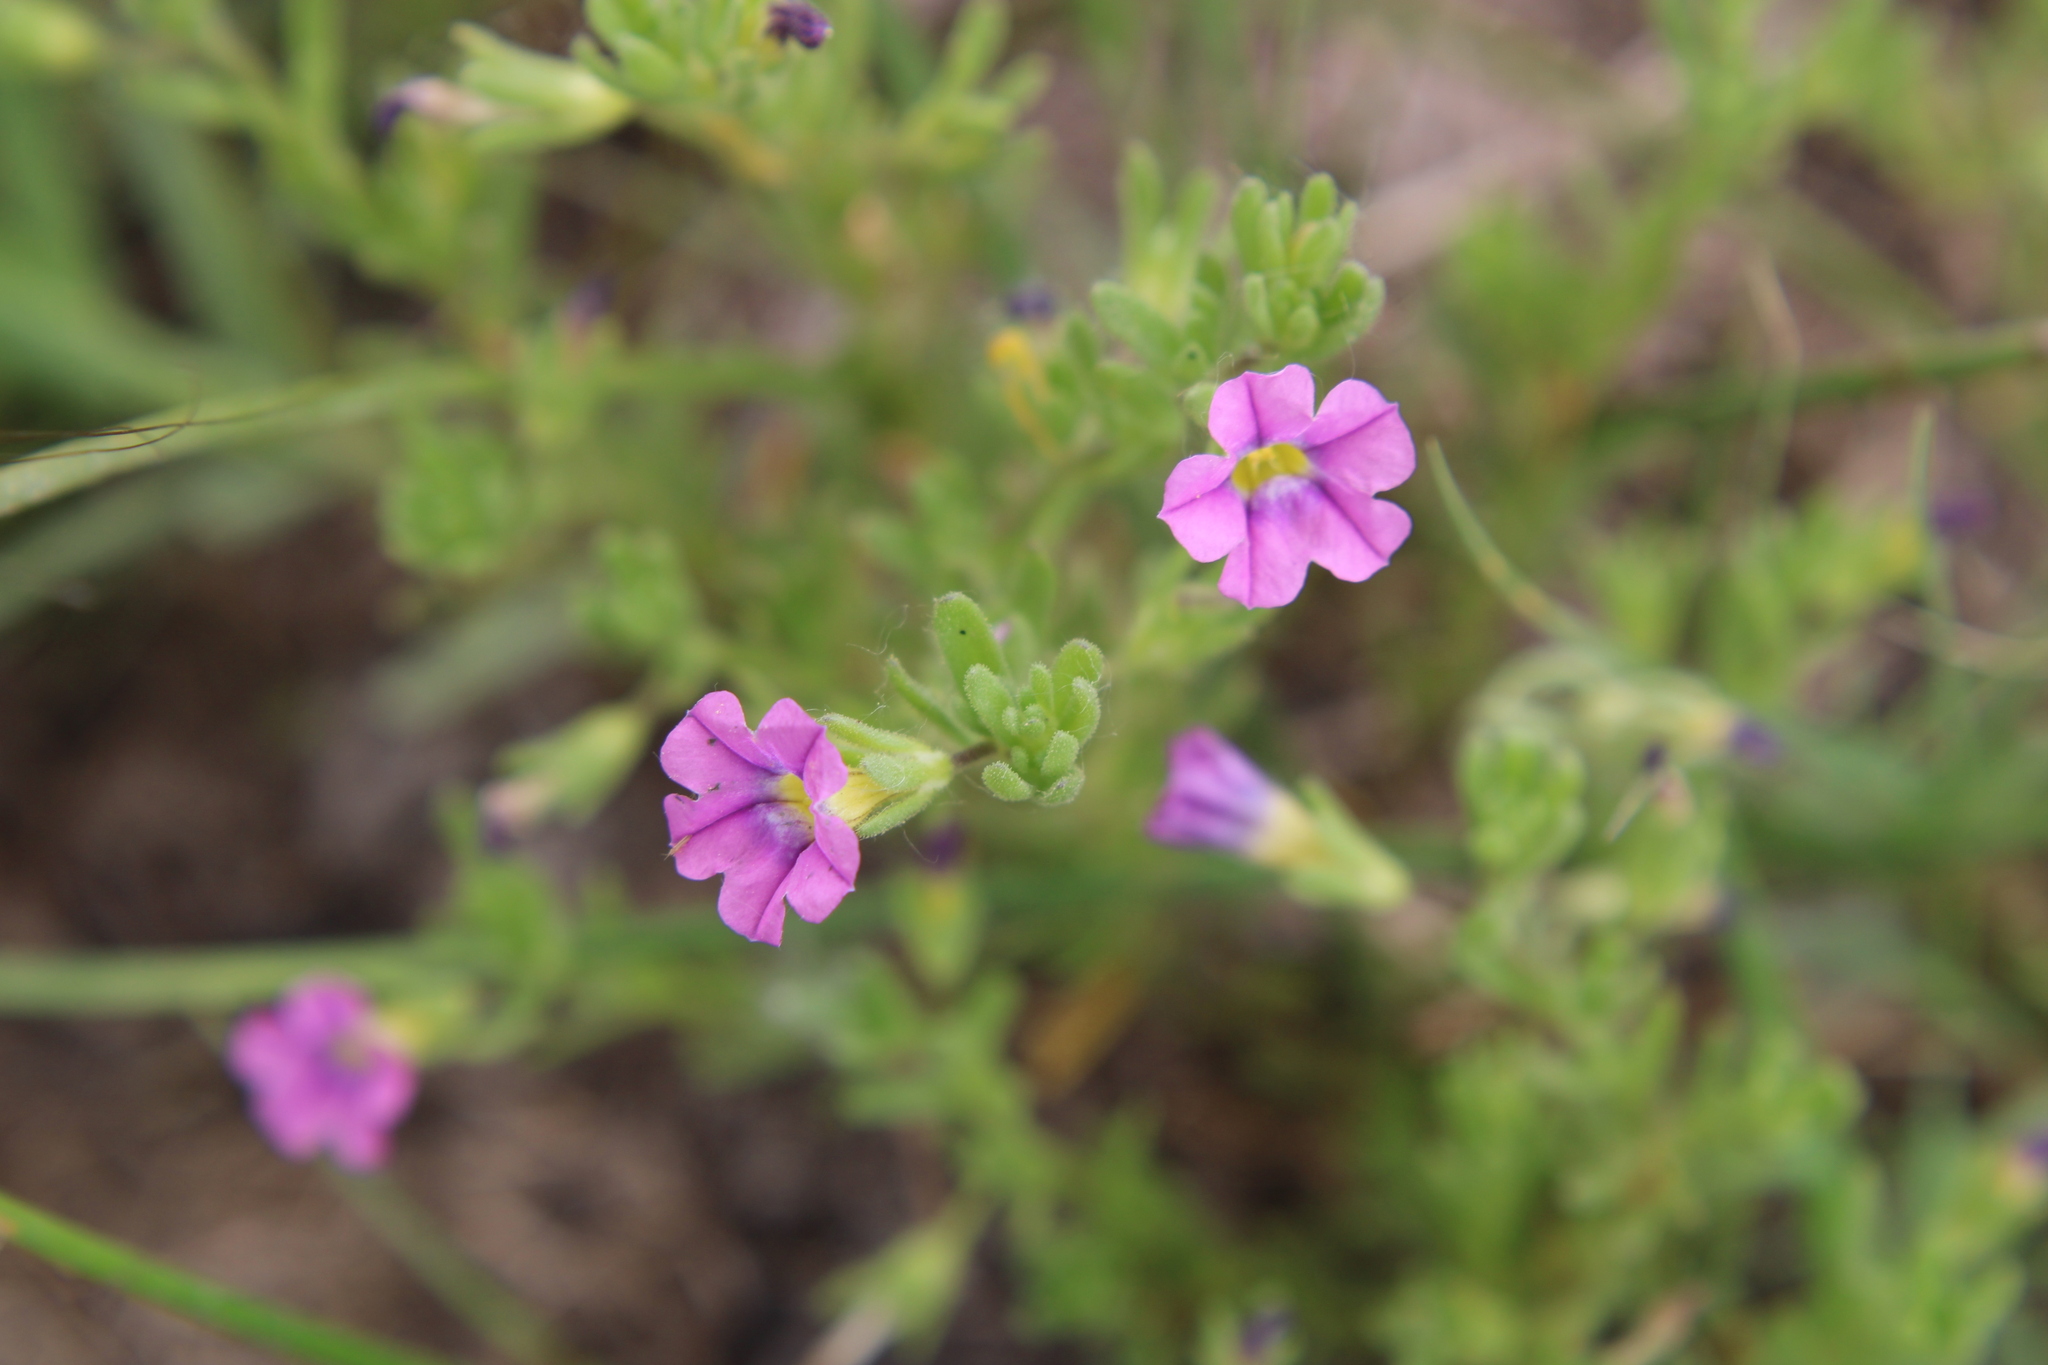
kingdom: Plantae
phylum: Tracheophyta
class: Magnoliopsida
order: Solanales
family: Solanaceae
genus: Calibrachoa
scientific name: Calibrachoa parviflora
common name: Seaside petunia
